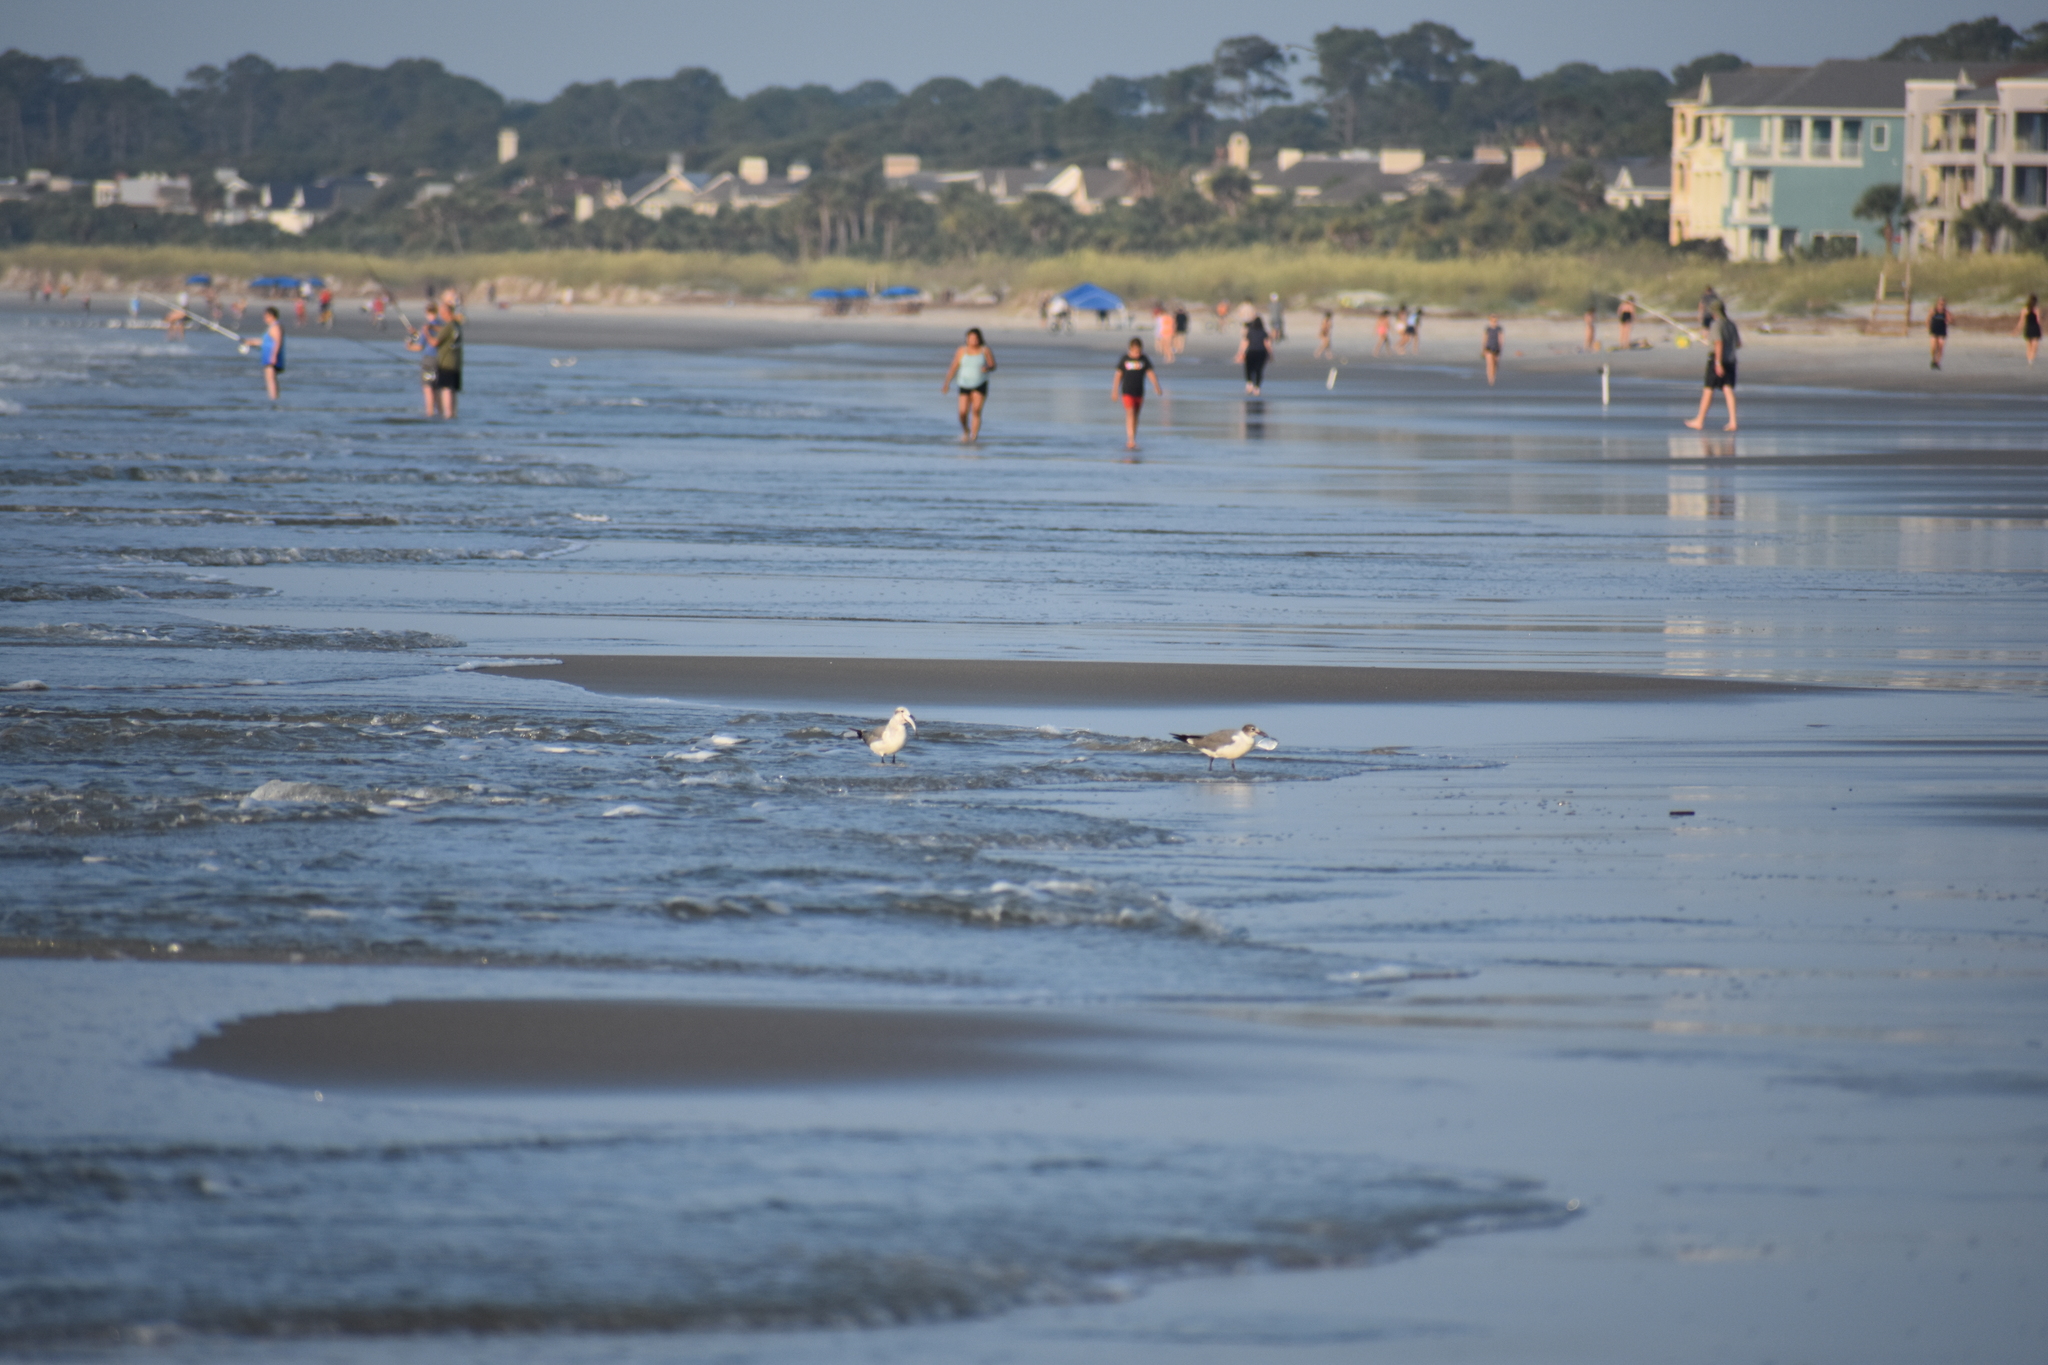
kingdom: Animalia
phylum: Chordata
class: Aves
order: Charadriiformes
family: Laridae
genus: Leucophaeus
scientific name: Leucophaeus atricilla
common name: Laughing gull
